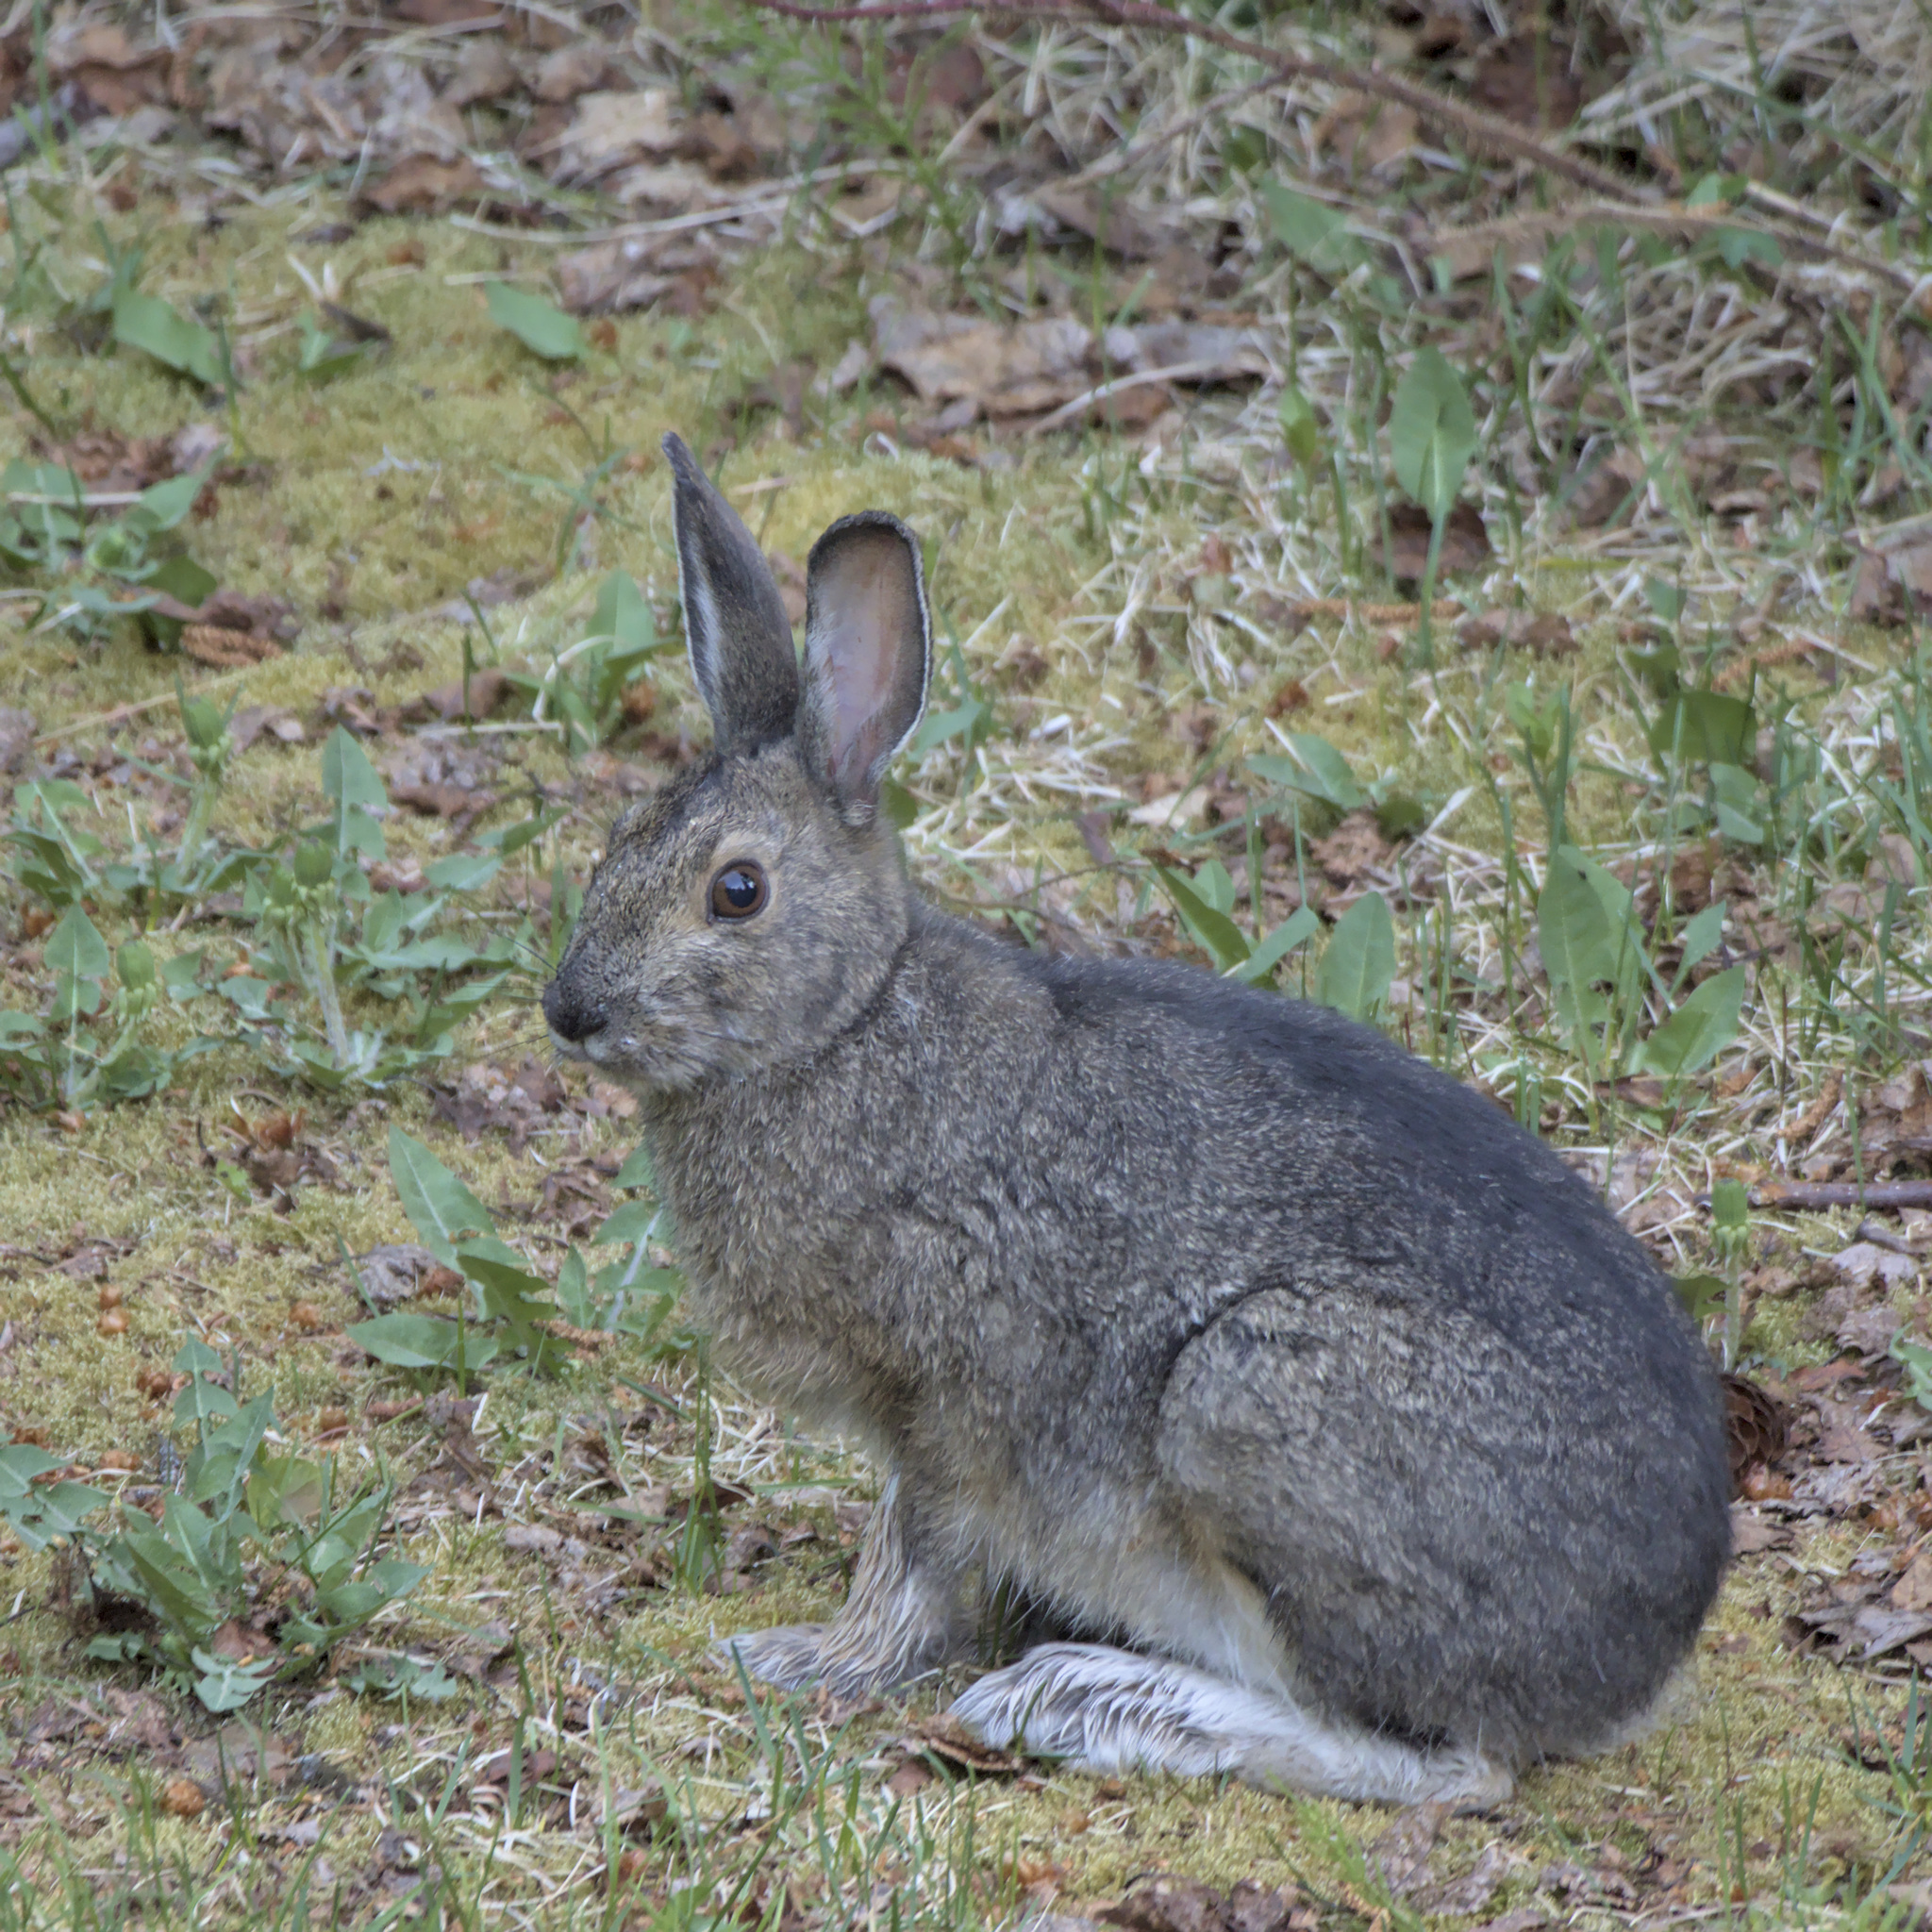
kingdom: Animalia
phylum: Chordata
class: Mammalia
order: Lagomorpha
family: Leporidae
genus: Lepus
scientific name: Lepus americanus
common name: Snowshoe hare
